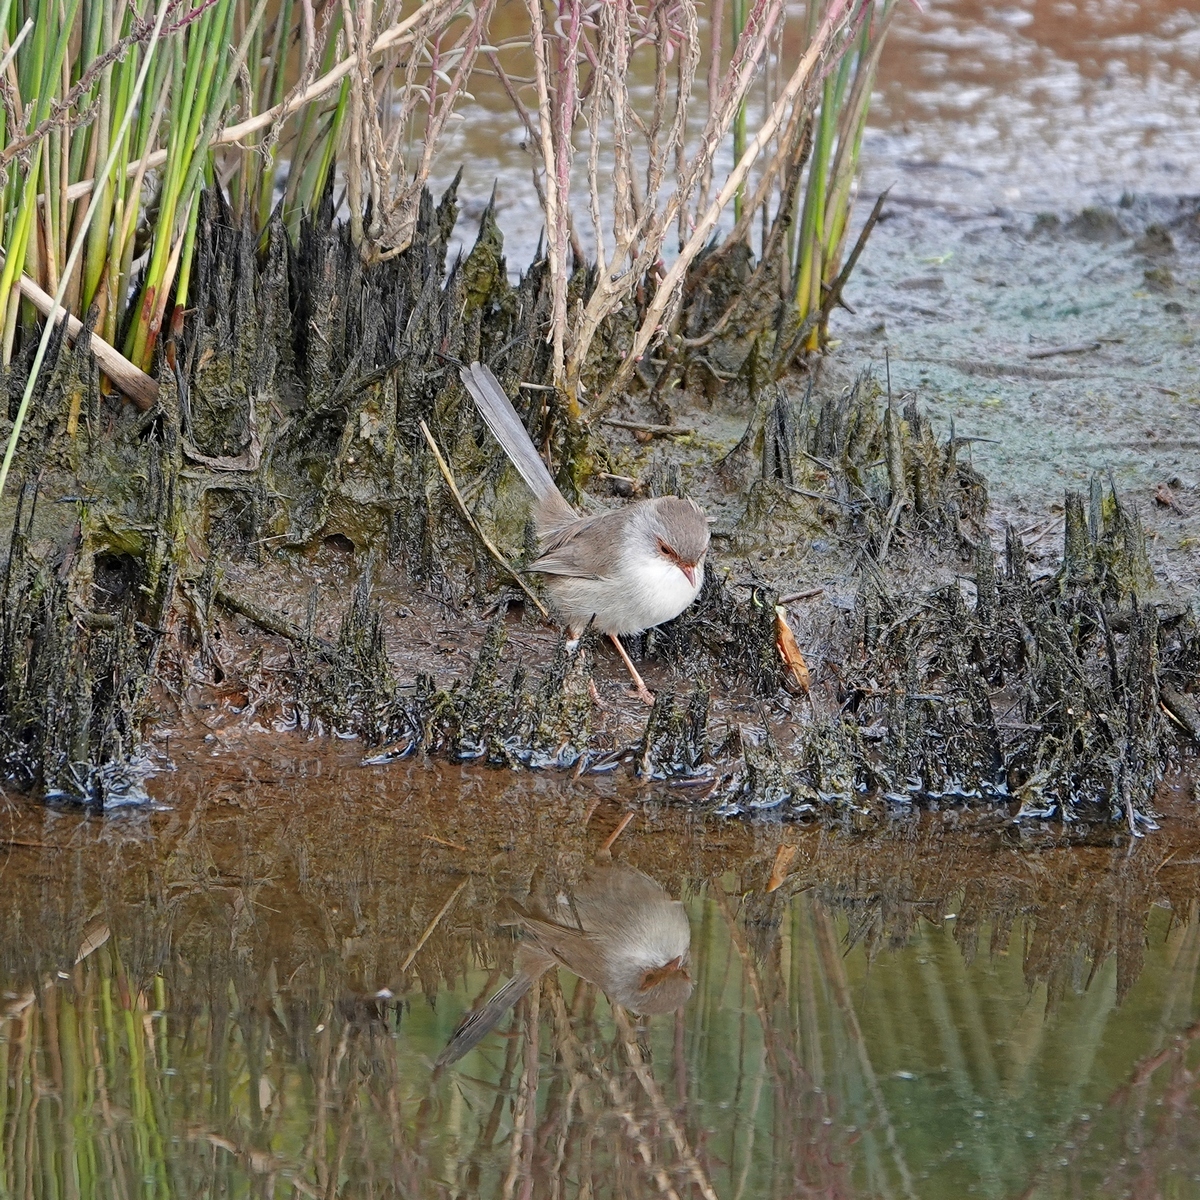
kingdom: Animalia
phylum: Chordata
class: Aves
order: Passeriformes
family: Maluridae
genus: Malurus
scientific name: Malurus cyaneus
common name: Superb fairywren
